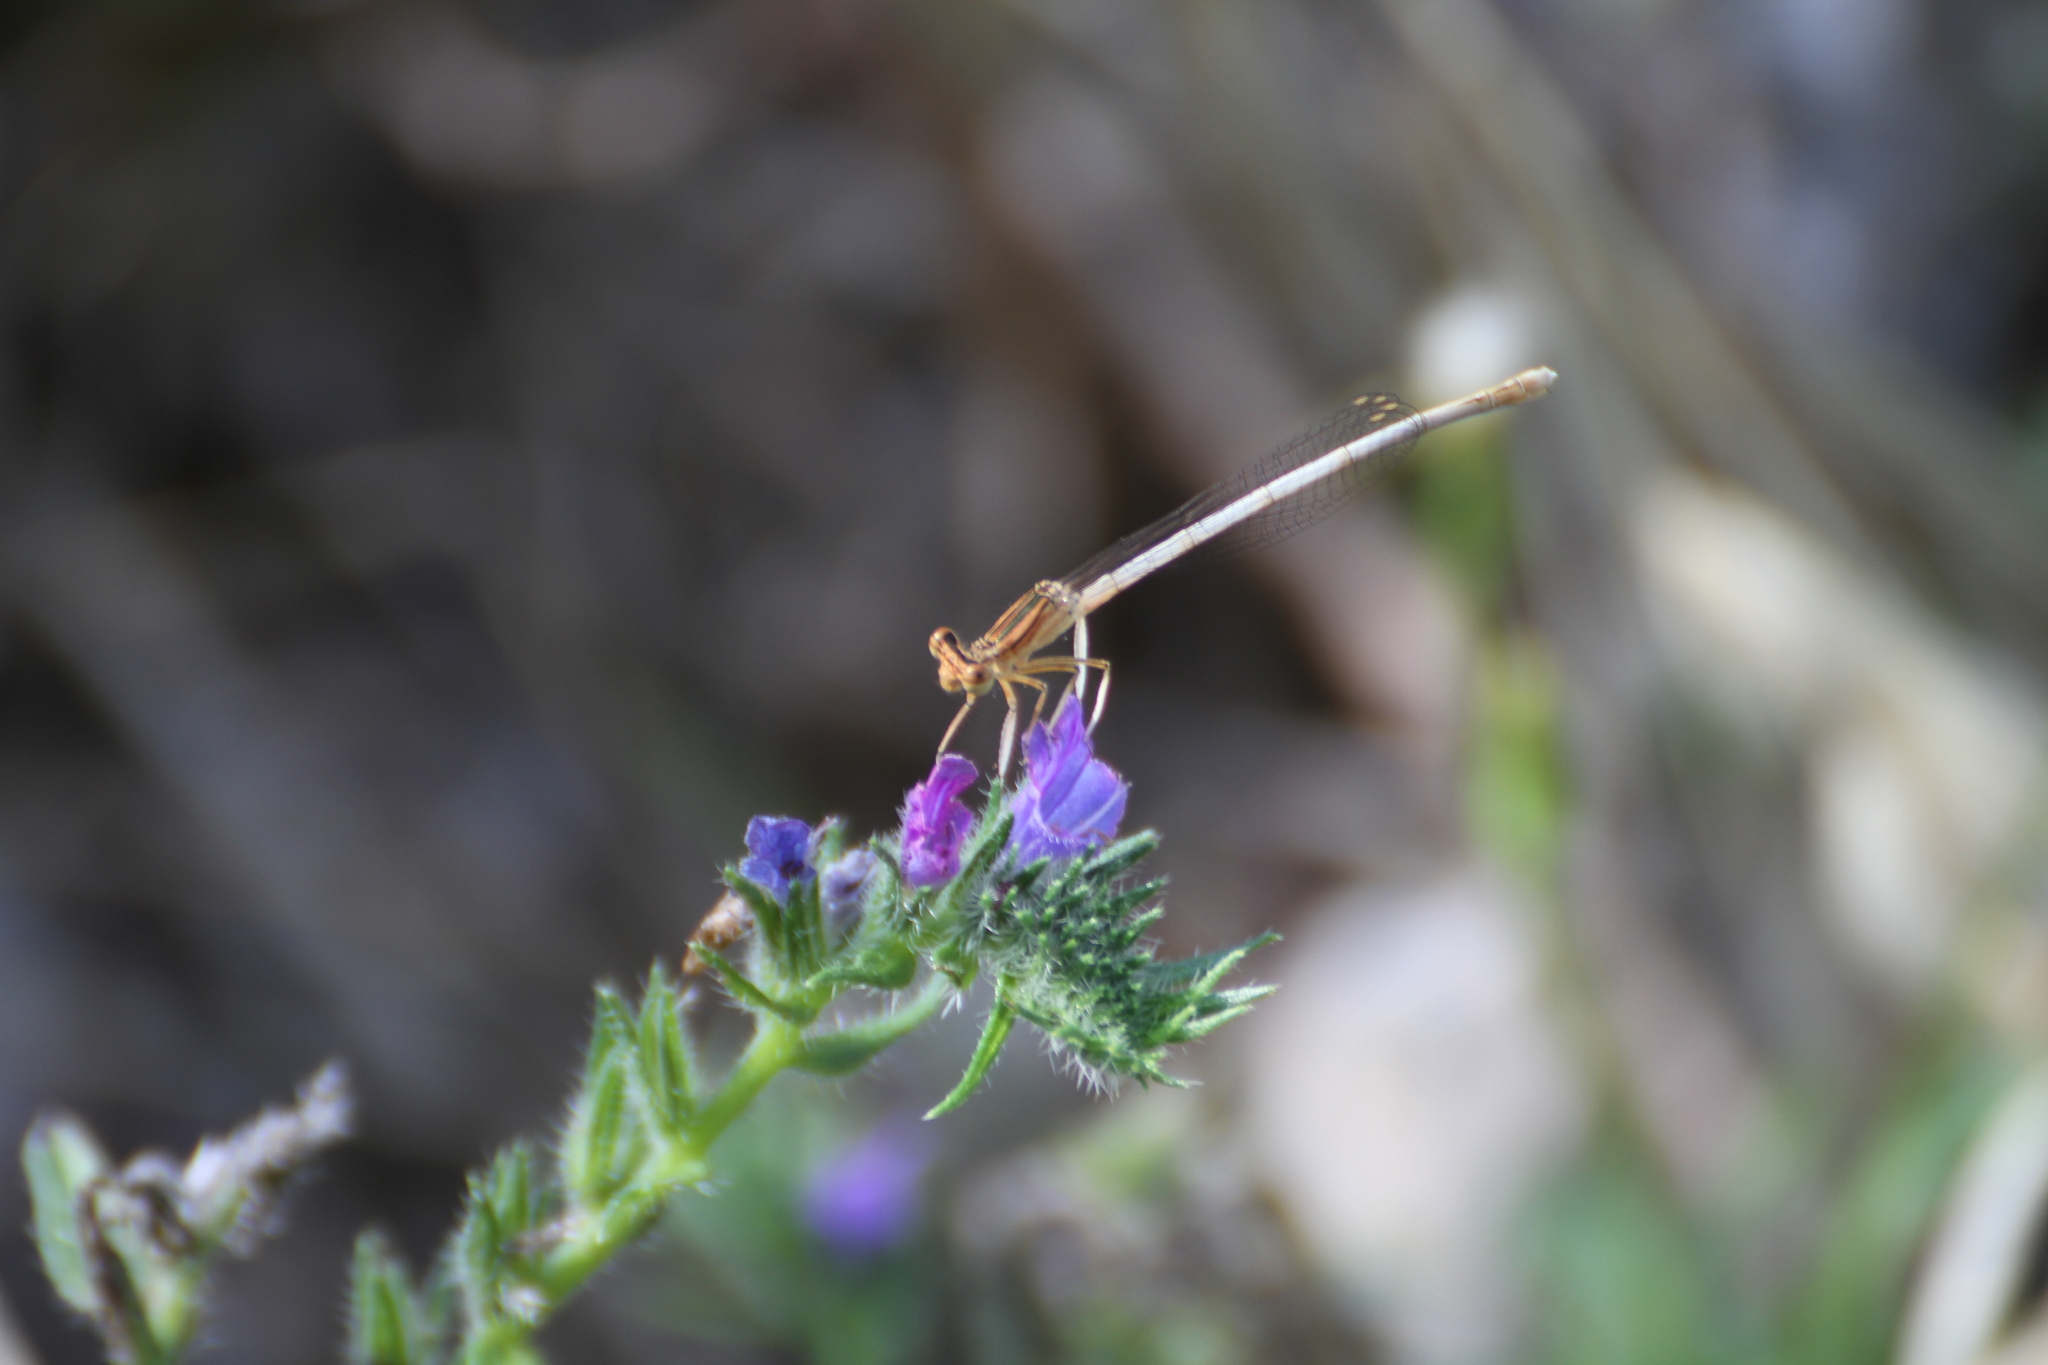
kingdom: Animalia
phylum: Arthropoda
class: Insecta
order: Odonata
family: Platycnemididae
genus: Platycnemis
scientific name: Platycnemis latipes
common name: White featherleg
